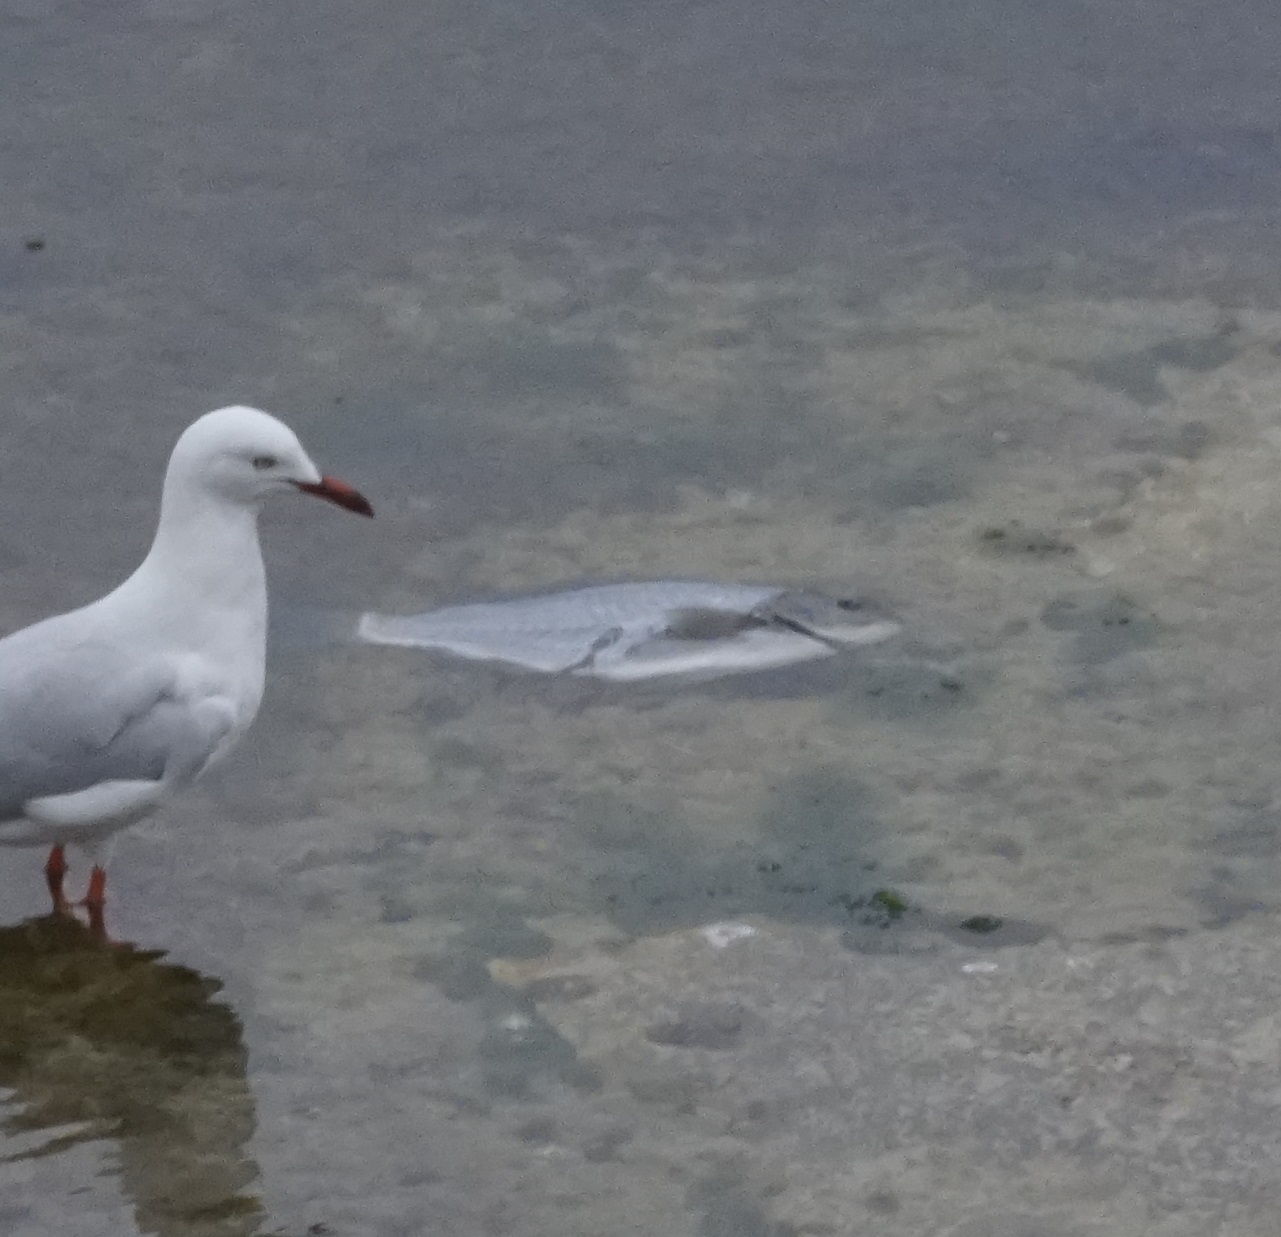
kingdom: Animalia
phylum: Chordata
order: Perciformes
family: Kyphosidae
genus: Girella
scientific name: Girella tricuspidata
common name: Parore
